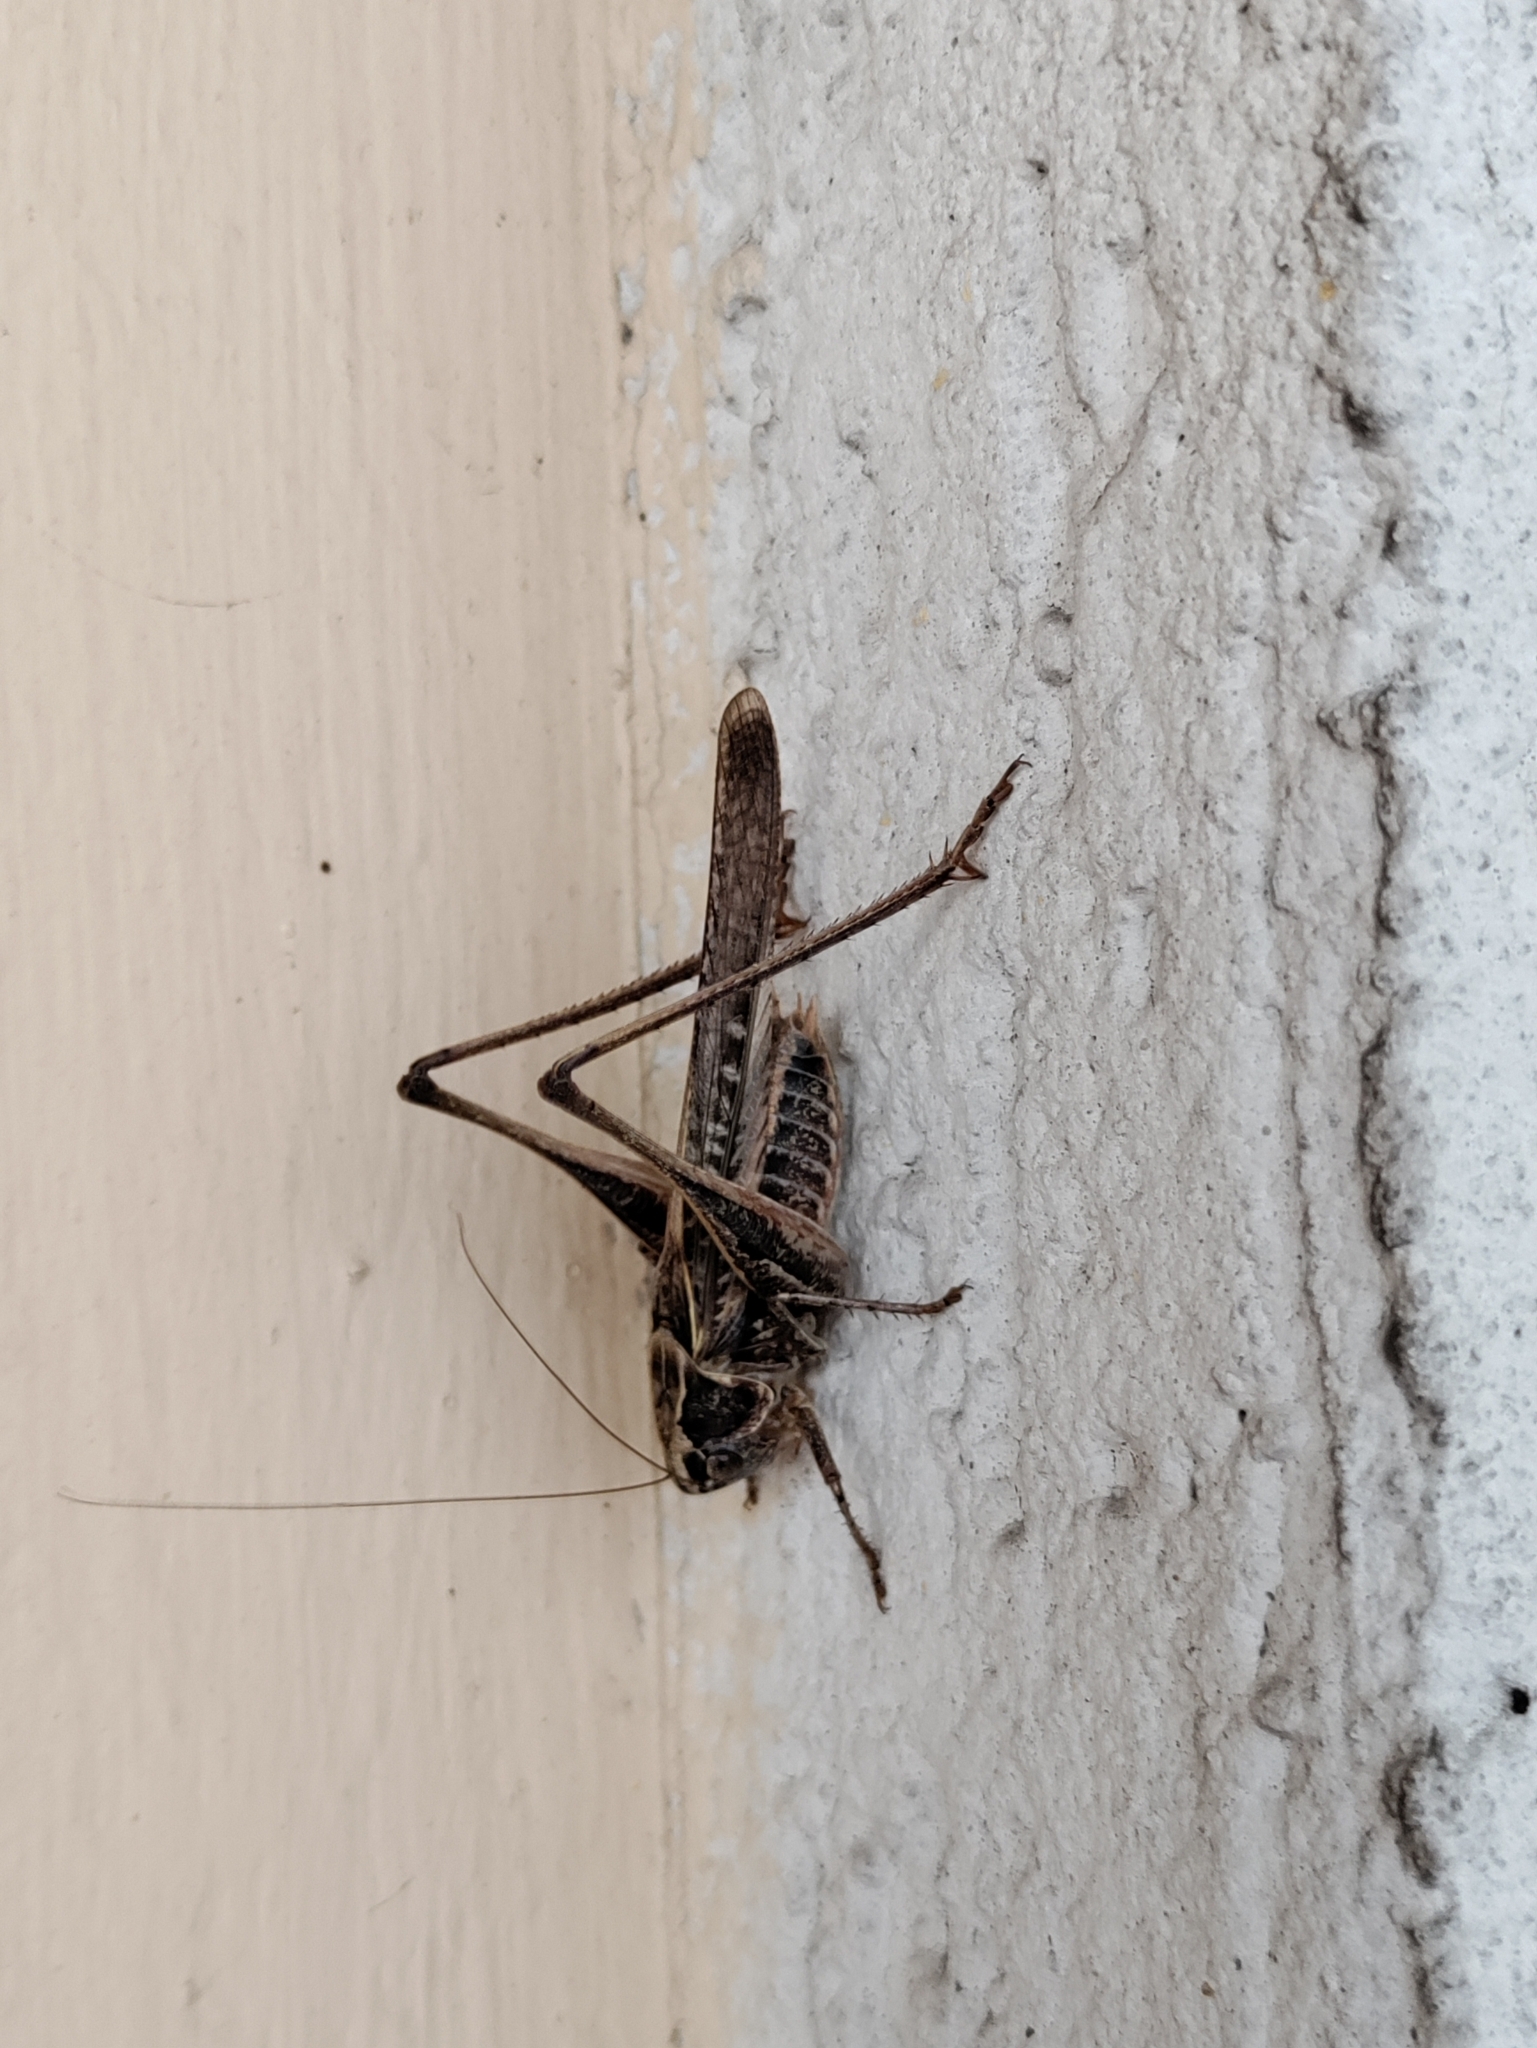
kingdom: Animalia
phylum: Arthropoda
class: Insecta
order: Orthoptera
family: Tettigoniidae
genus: Platycleis
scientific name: Platycleis affinis
